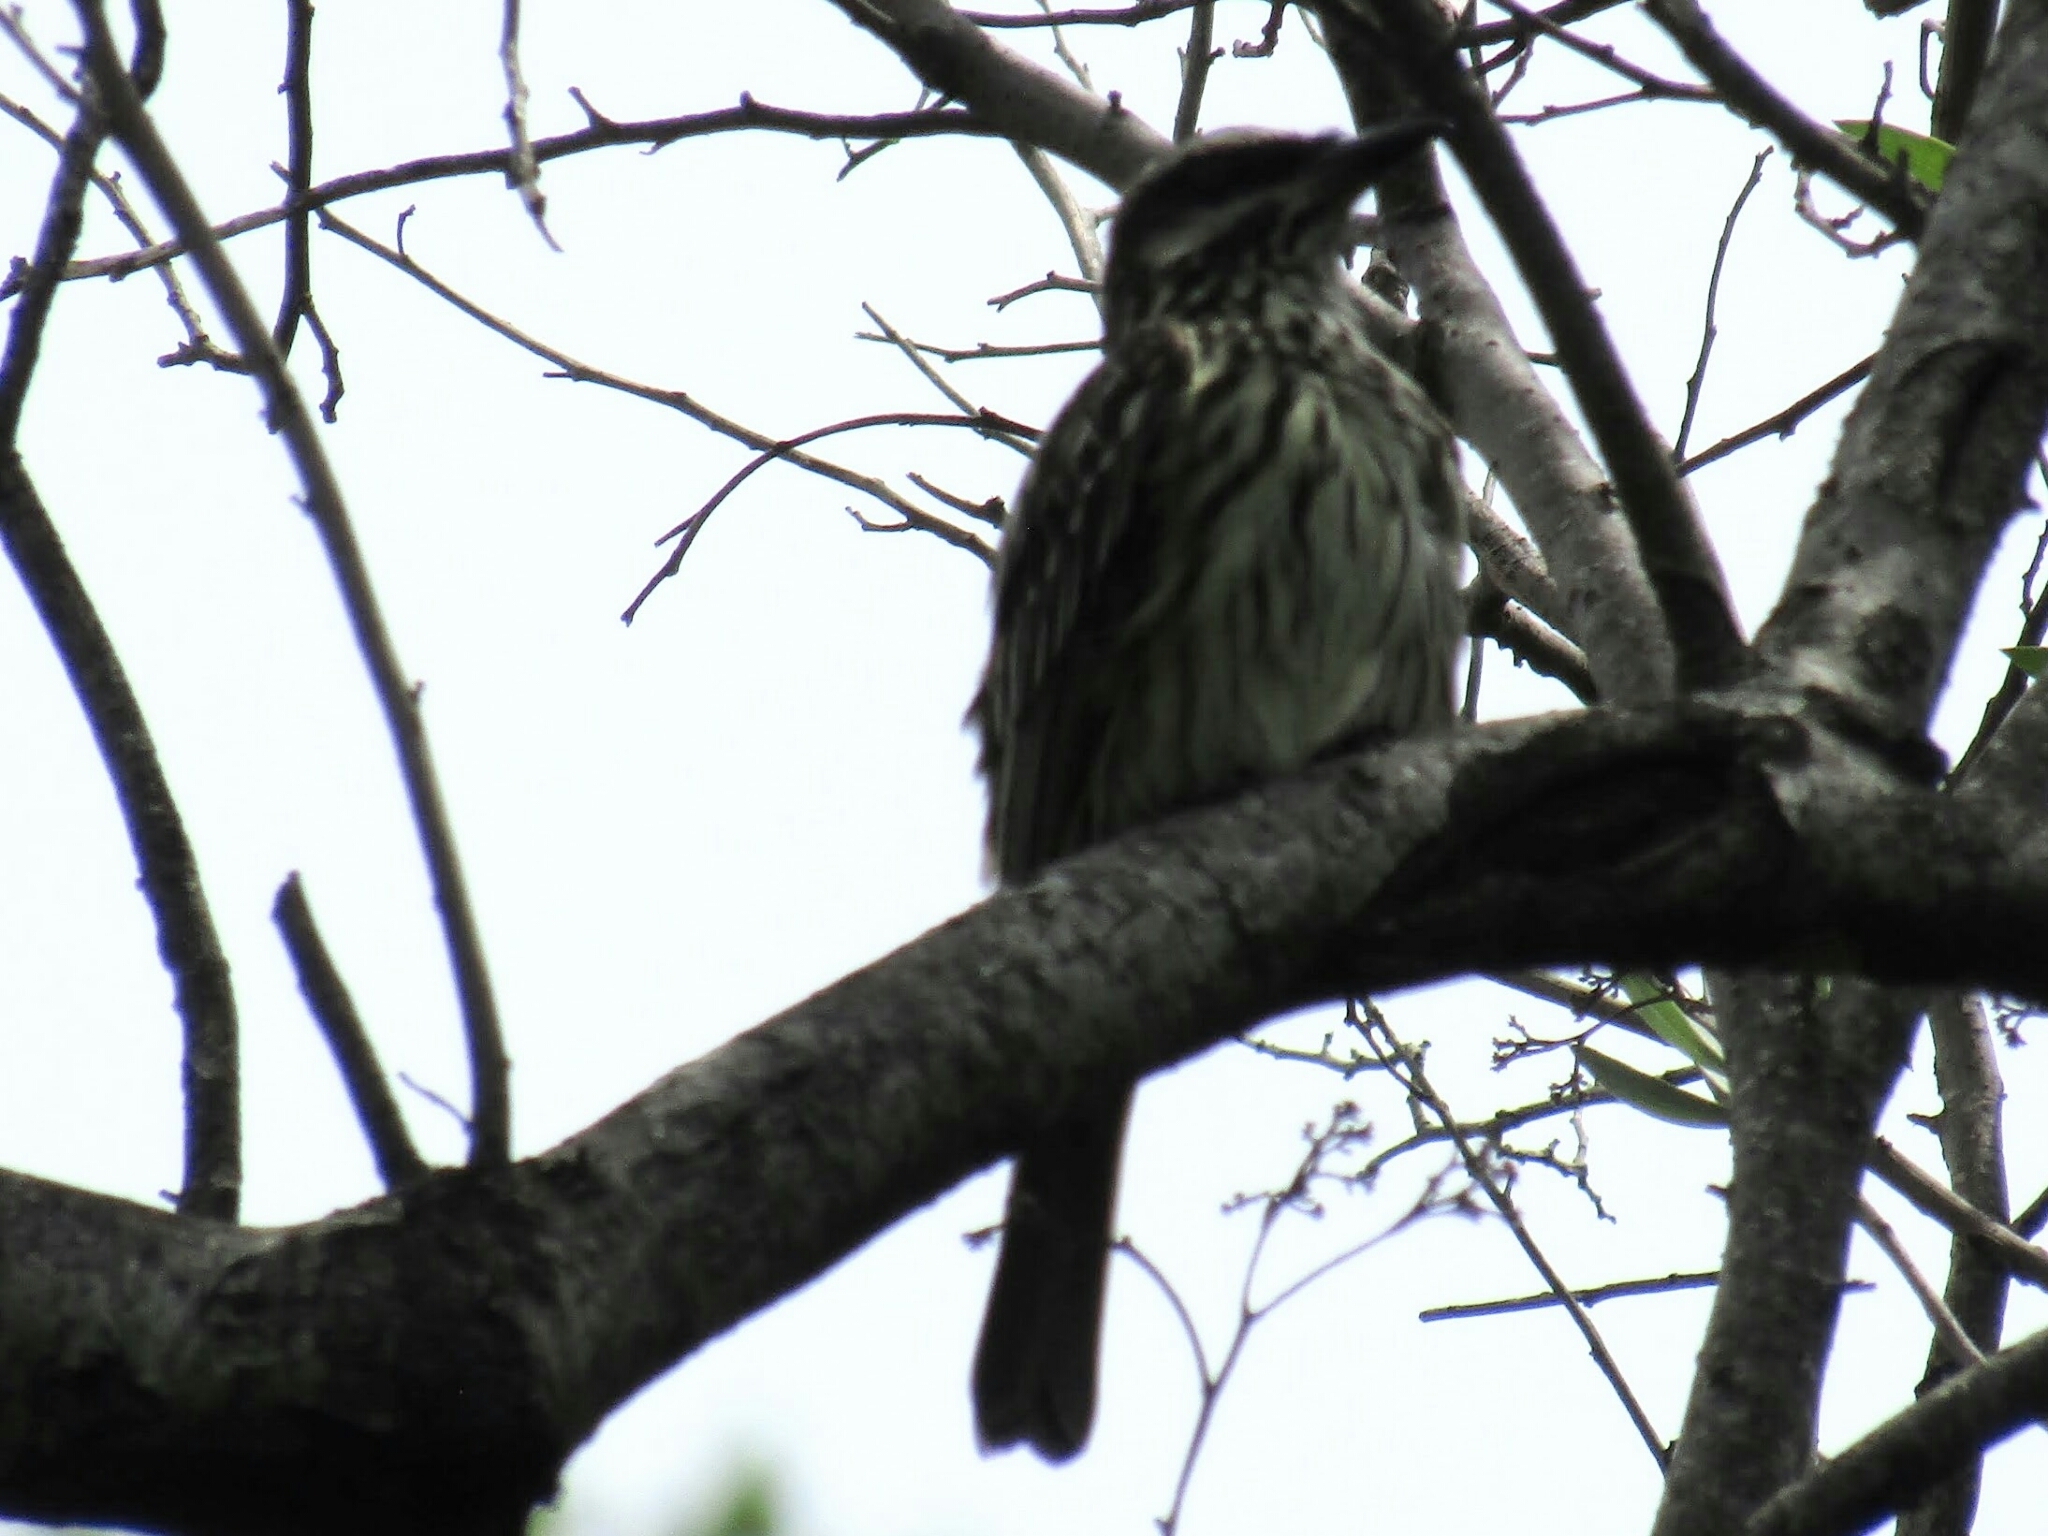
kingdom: Animalia
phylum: Chordata
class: Aves
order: Passeriformes
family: Tyrannidae
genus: Myiodynastes
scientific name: Myiodynastes maculatus
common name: Streaked flycatcher
